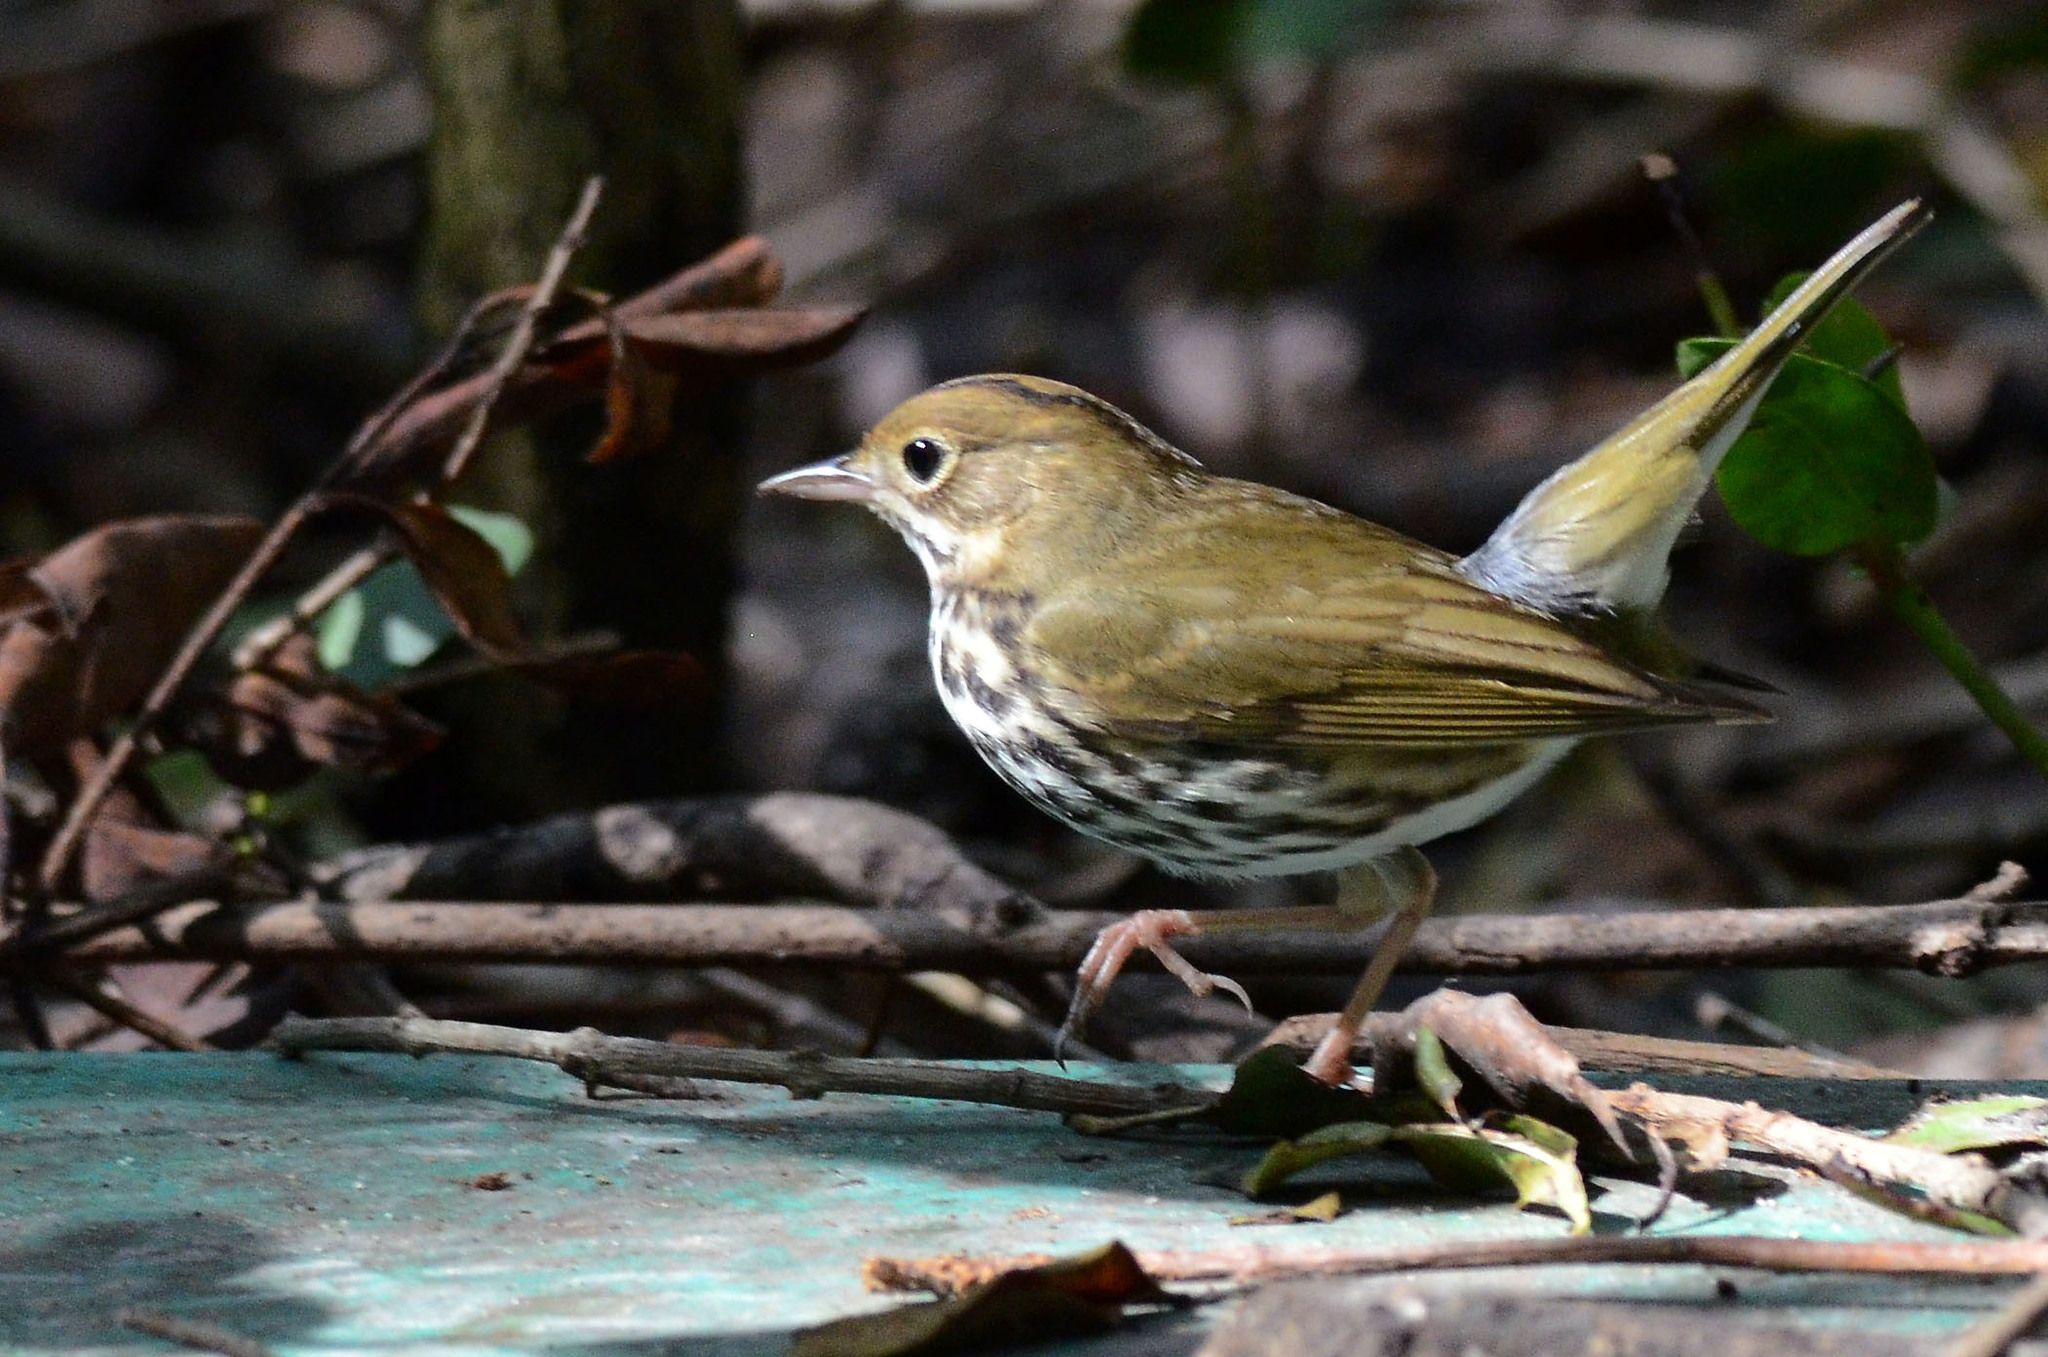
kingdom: Animalia
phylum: Chordata
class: Aves
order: Passeriformes
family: Parulidae
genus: Seiurus
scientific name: Seiurus aurocapilla
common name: Ovenbird
